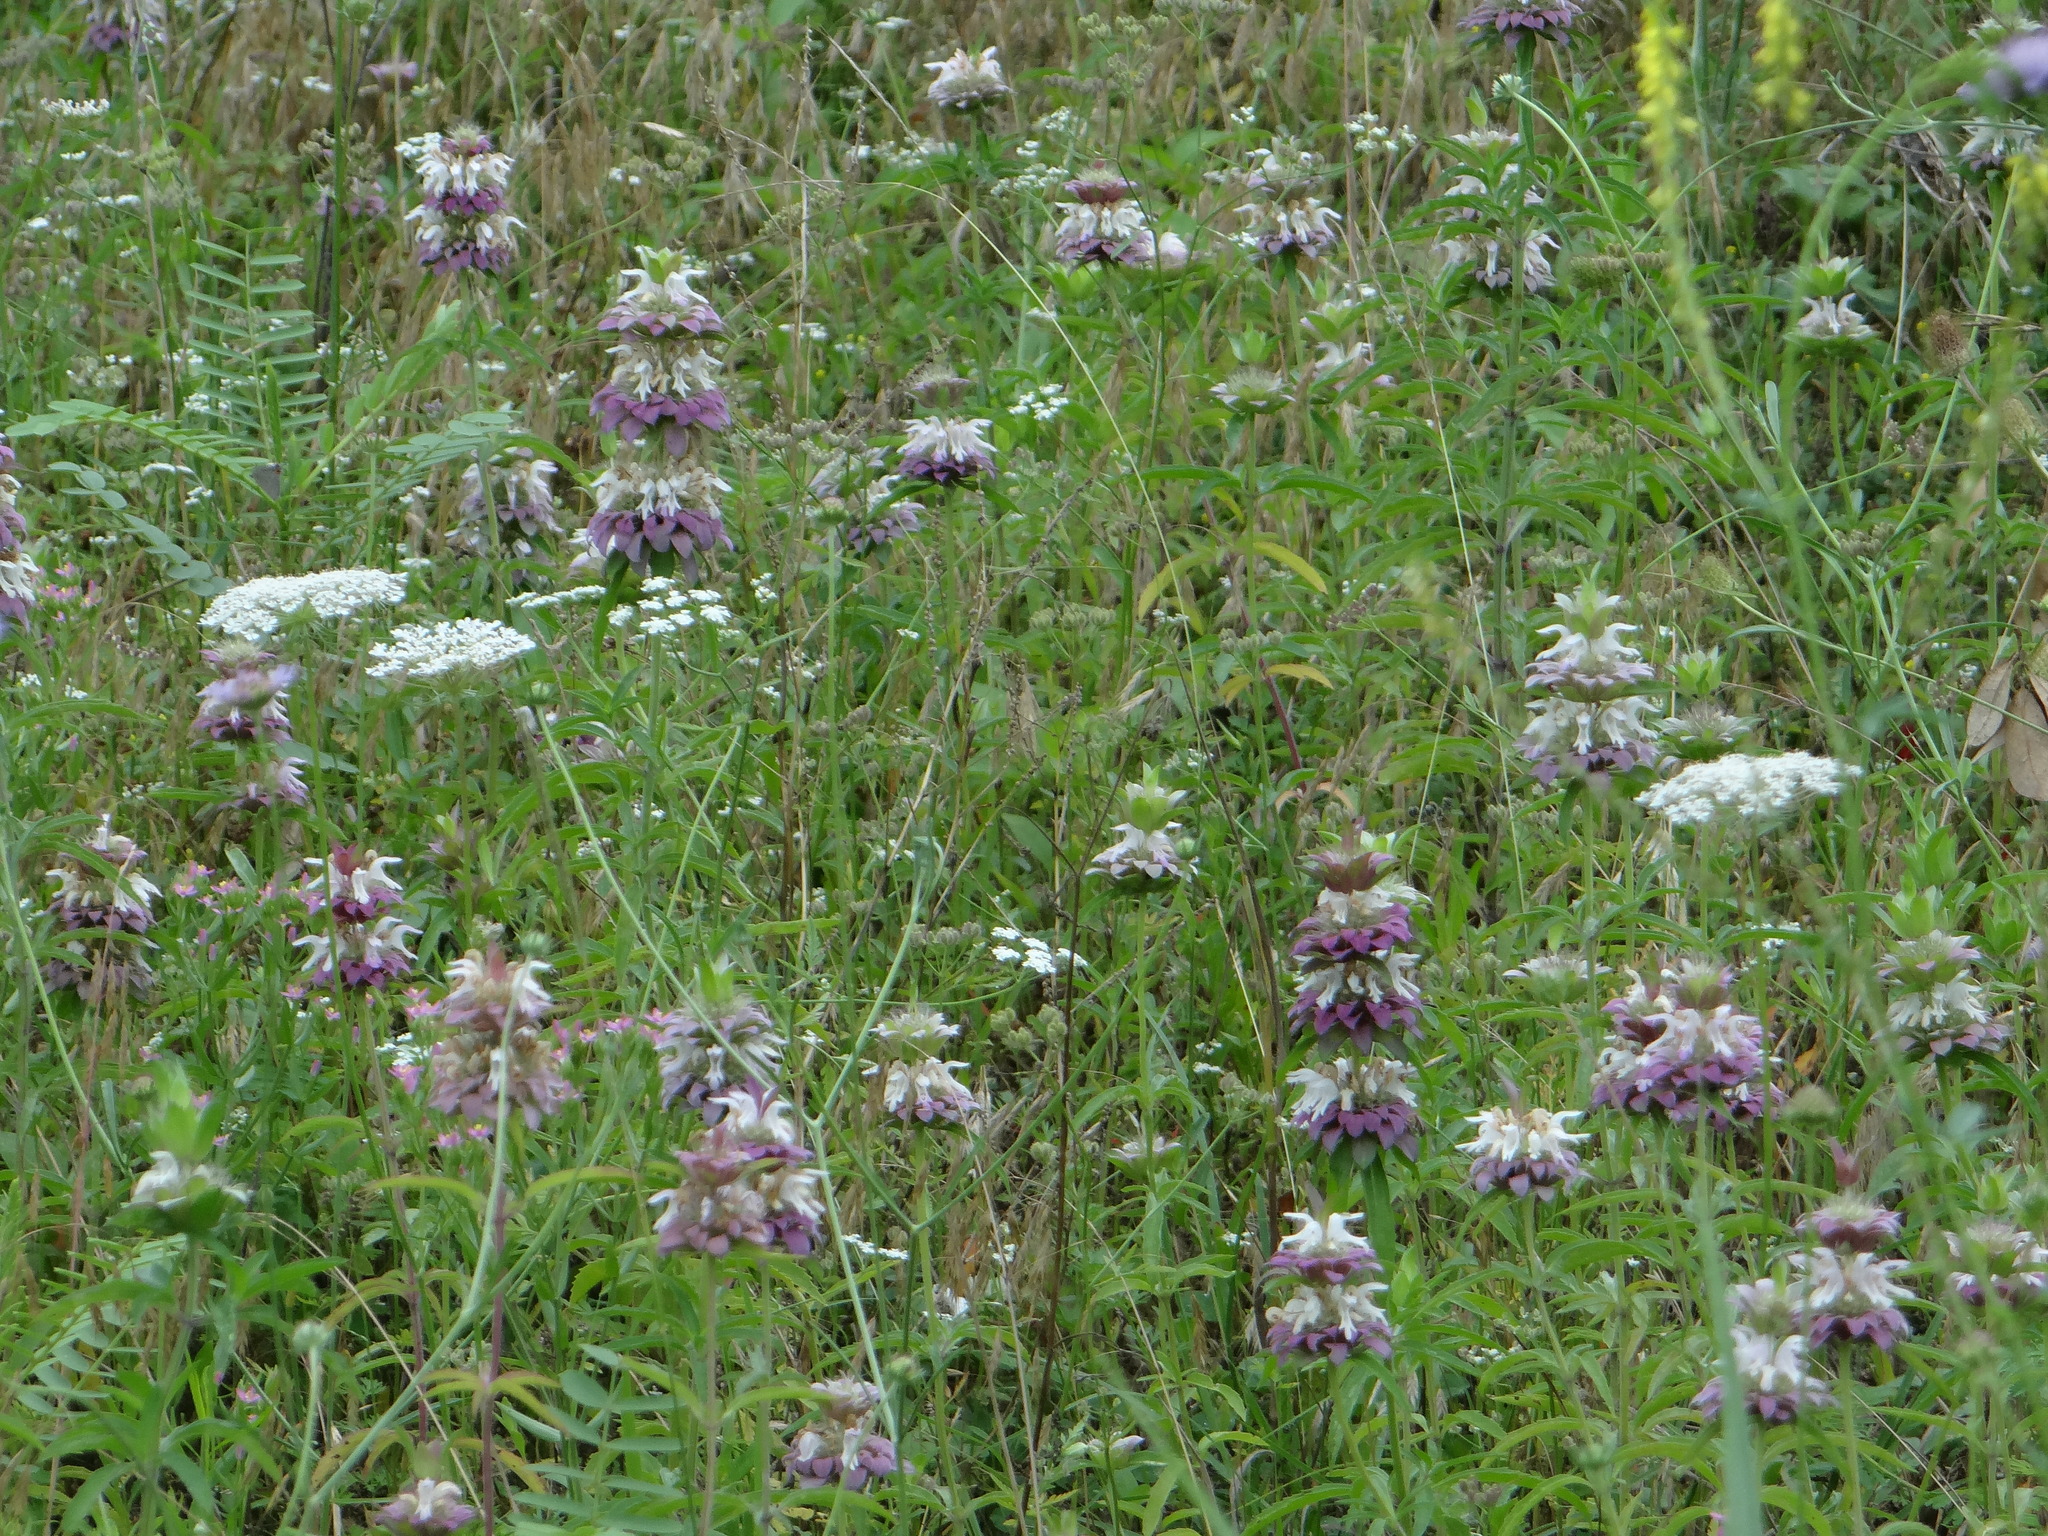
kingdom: Plantae
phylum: Tracheophyta
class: Magnoliopsida
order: Lamiales
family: Lamiaceae
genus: Monarda
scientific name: Monarda citriodora
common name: Lemon beebalm
